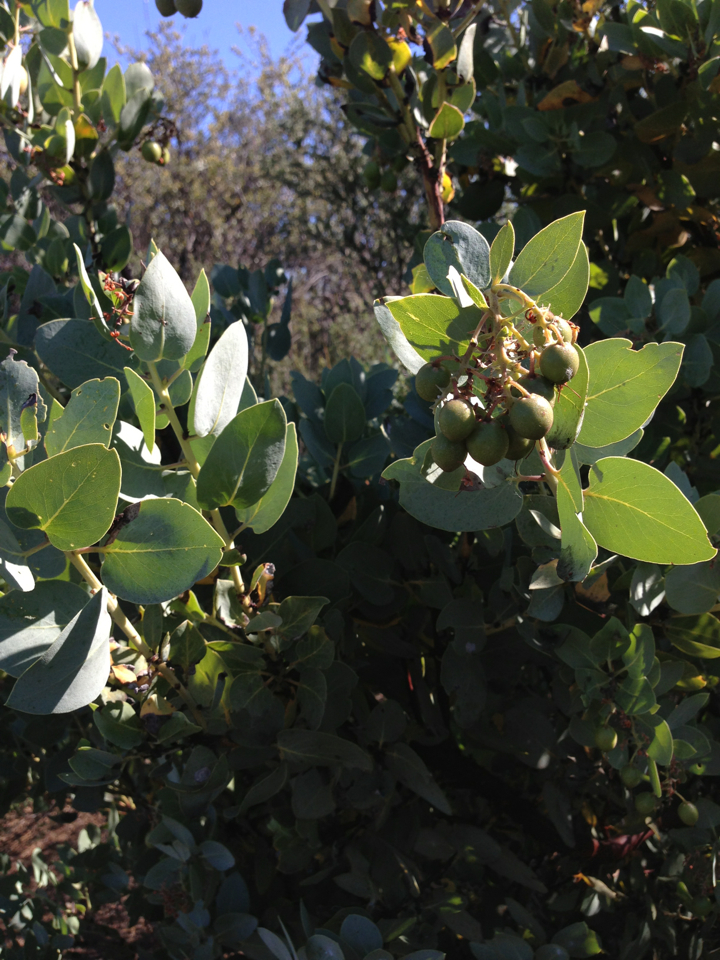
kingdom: Plantae
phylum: Tracheophyta
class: Magnoliopsida
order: Ericales
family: Ericaceae
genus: Arctostaphylos
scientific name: Arctostaphylos glauca
